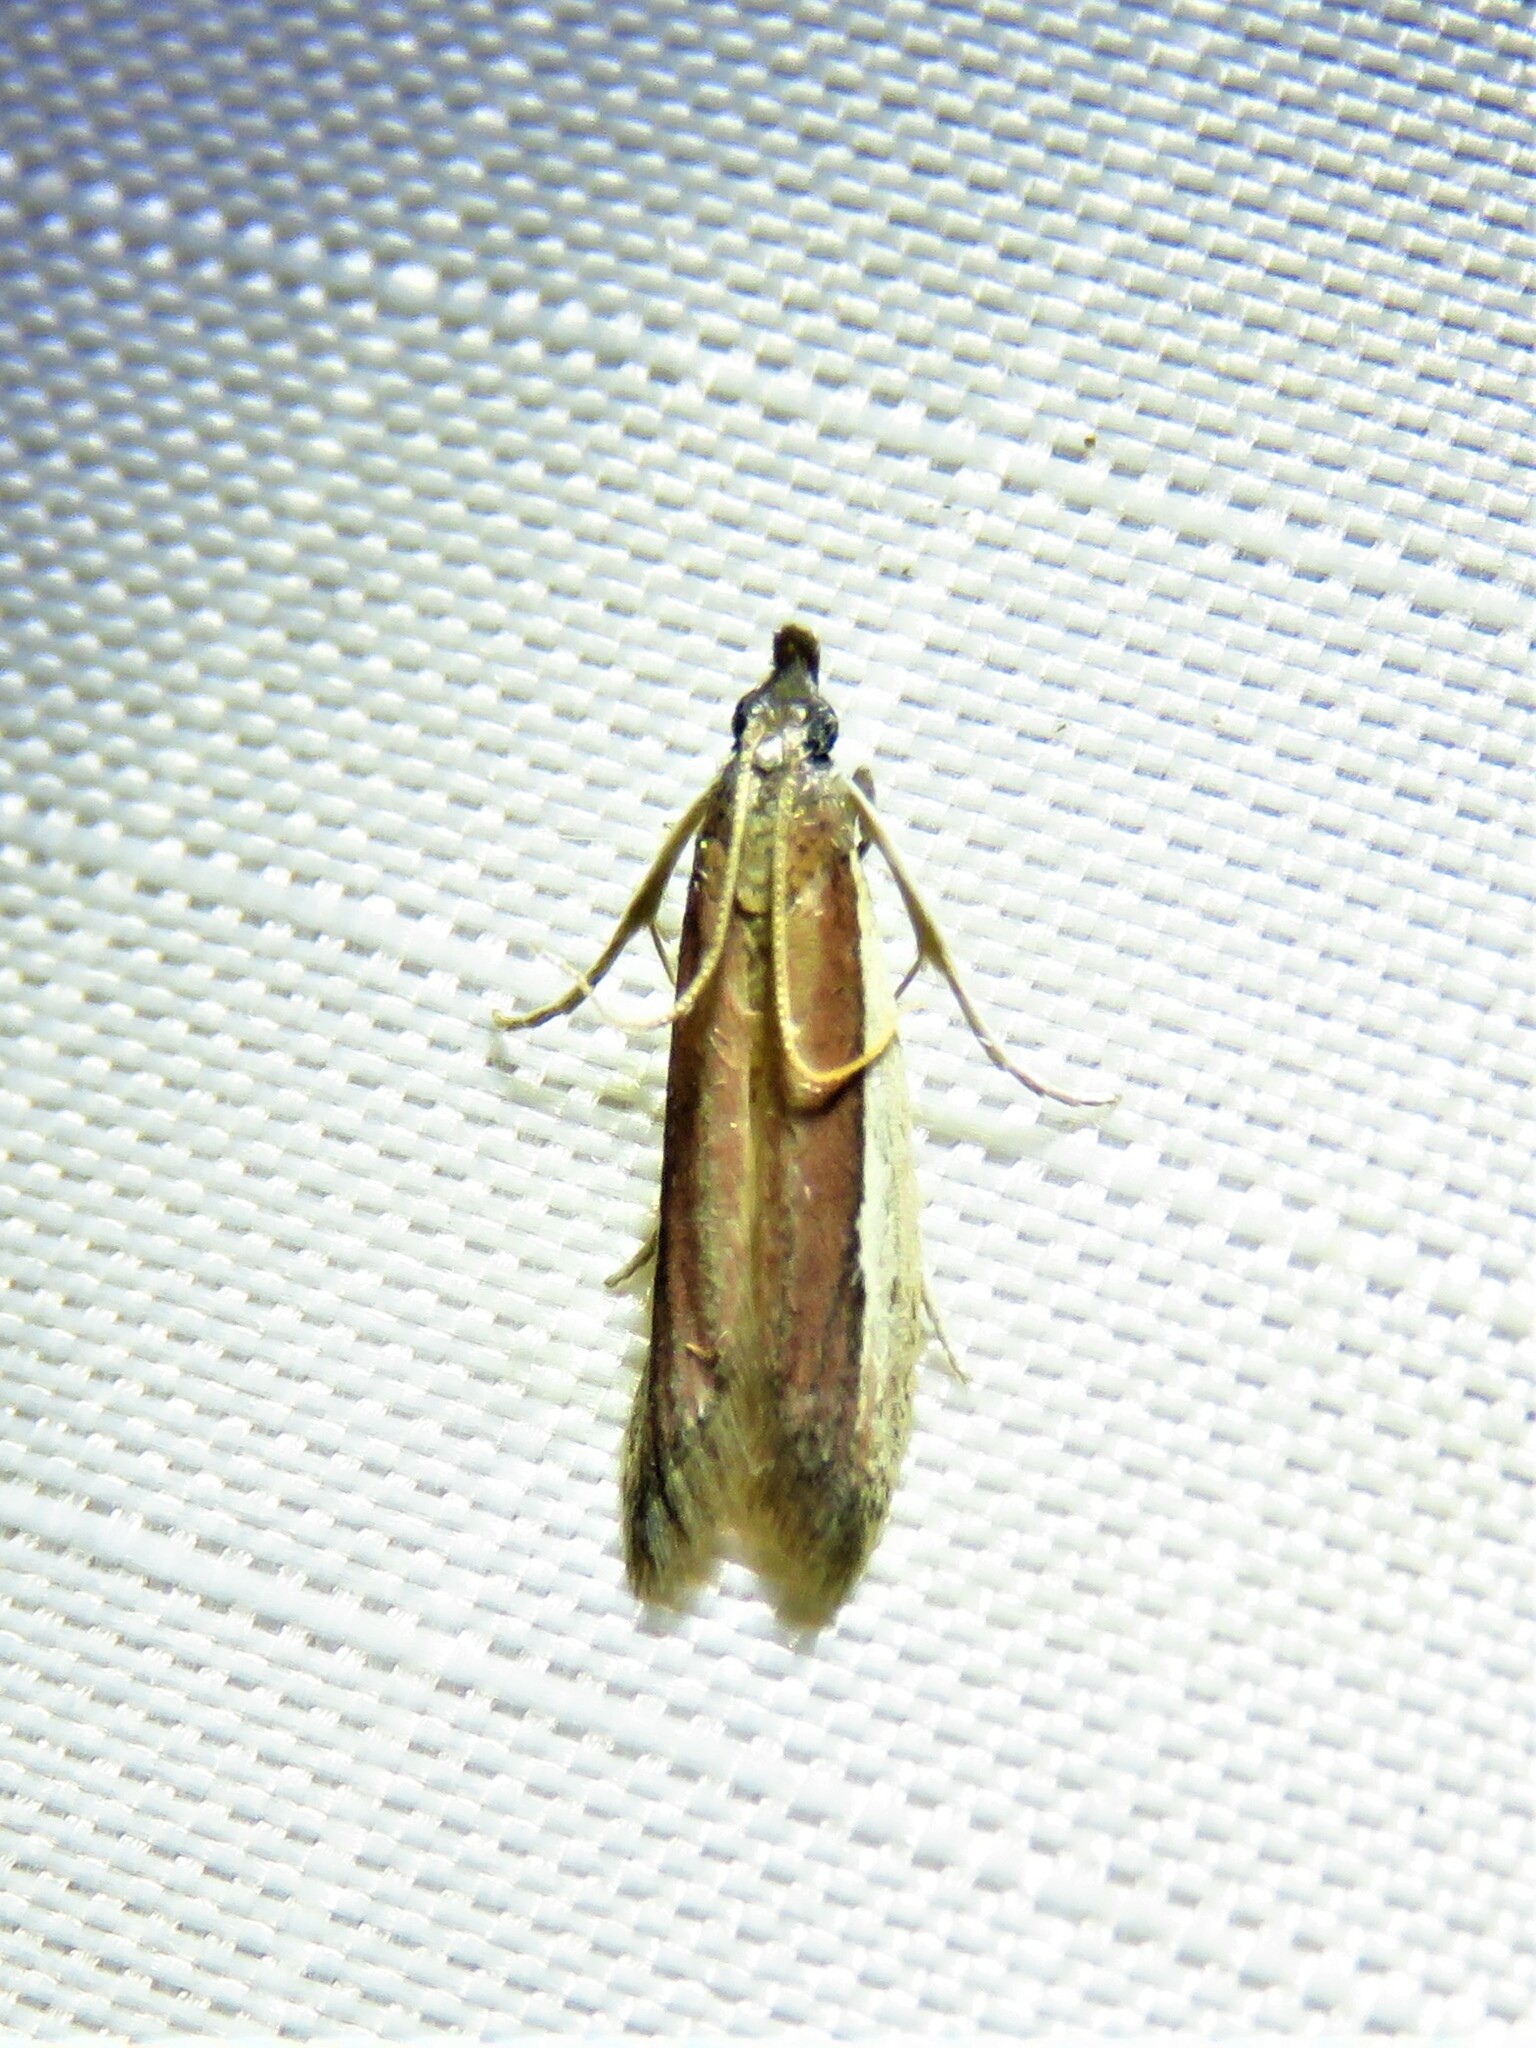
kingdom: Animalia
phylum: Arthropoda
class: Insecta
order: Lepidoptera
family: Pyralidae
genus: Tampa
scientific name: Tampa dimediatella
